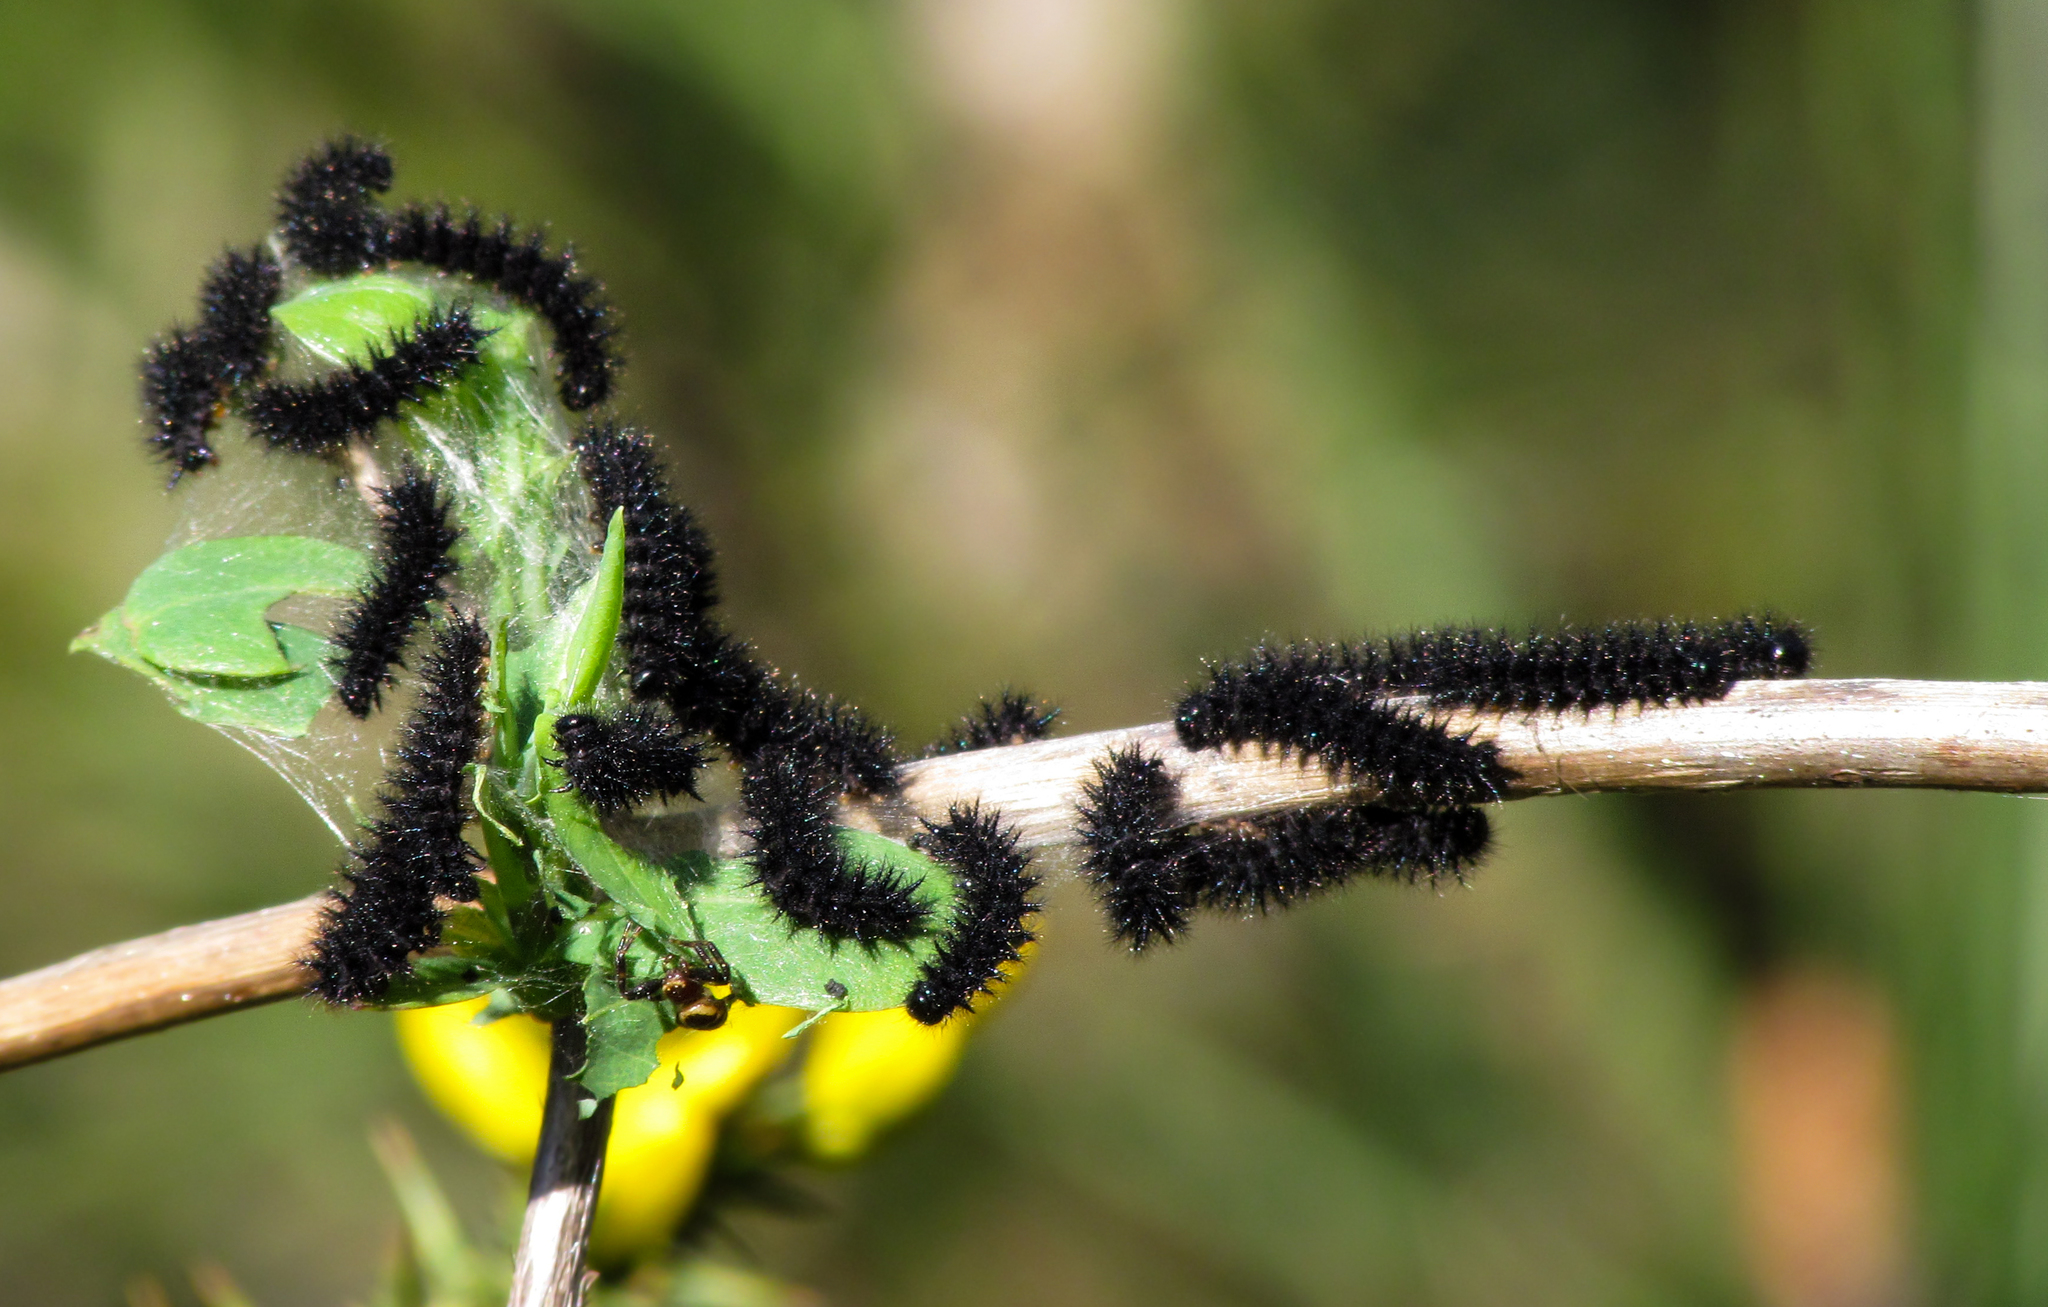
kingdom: Animalia
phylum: Arthropoda
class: Insecta
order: Lepidoptera
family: Nymphalidae
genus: Euphydryas
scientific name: Euphydryas aurinia
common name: Marsh fritillary
